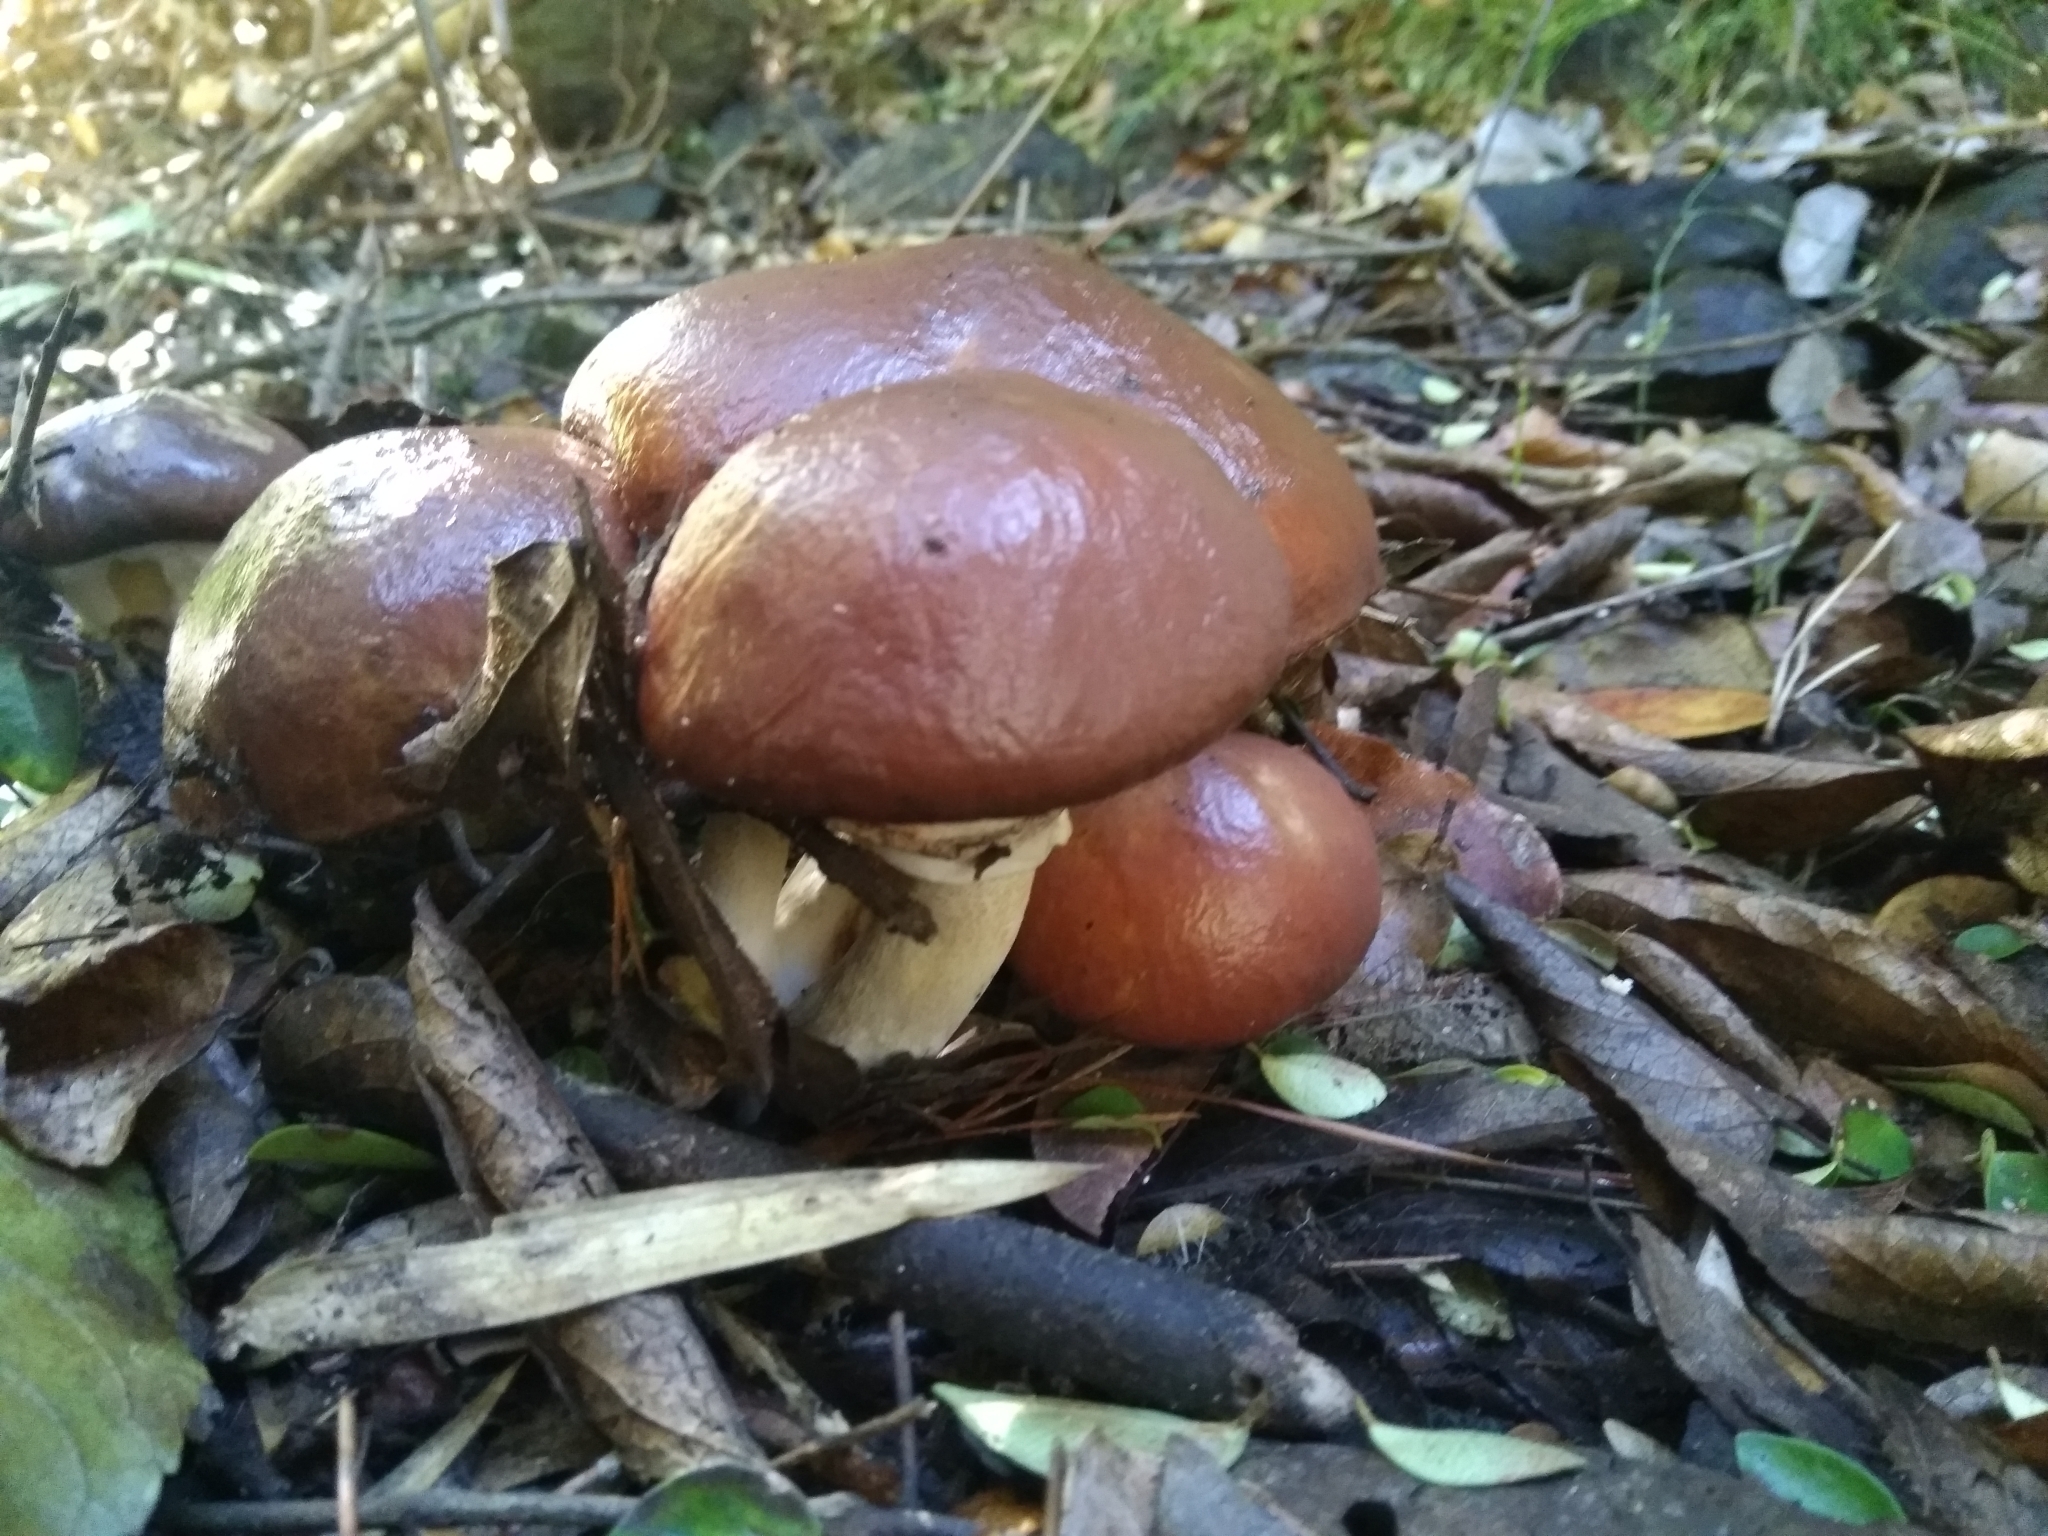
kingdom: Fungi
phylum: Basidiomycota
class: Agaricomycetes
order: Boletales
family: Suillaceae
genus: Suillus
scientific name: Suillus luteus
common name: Slippery jack
